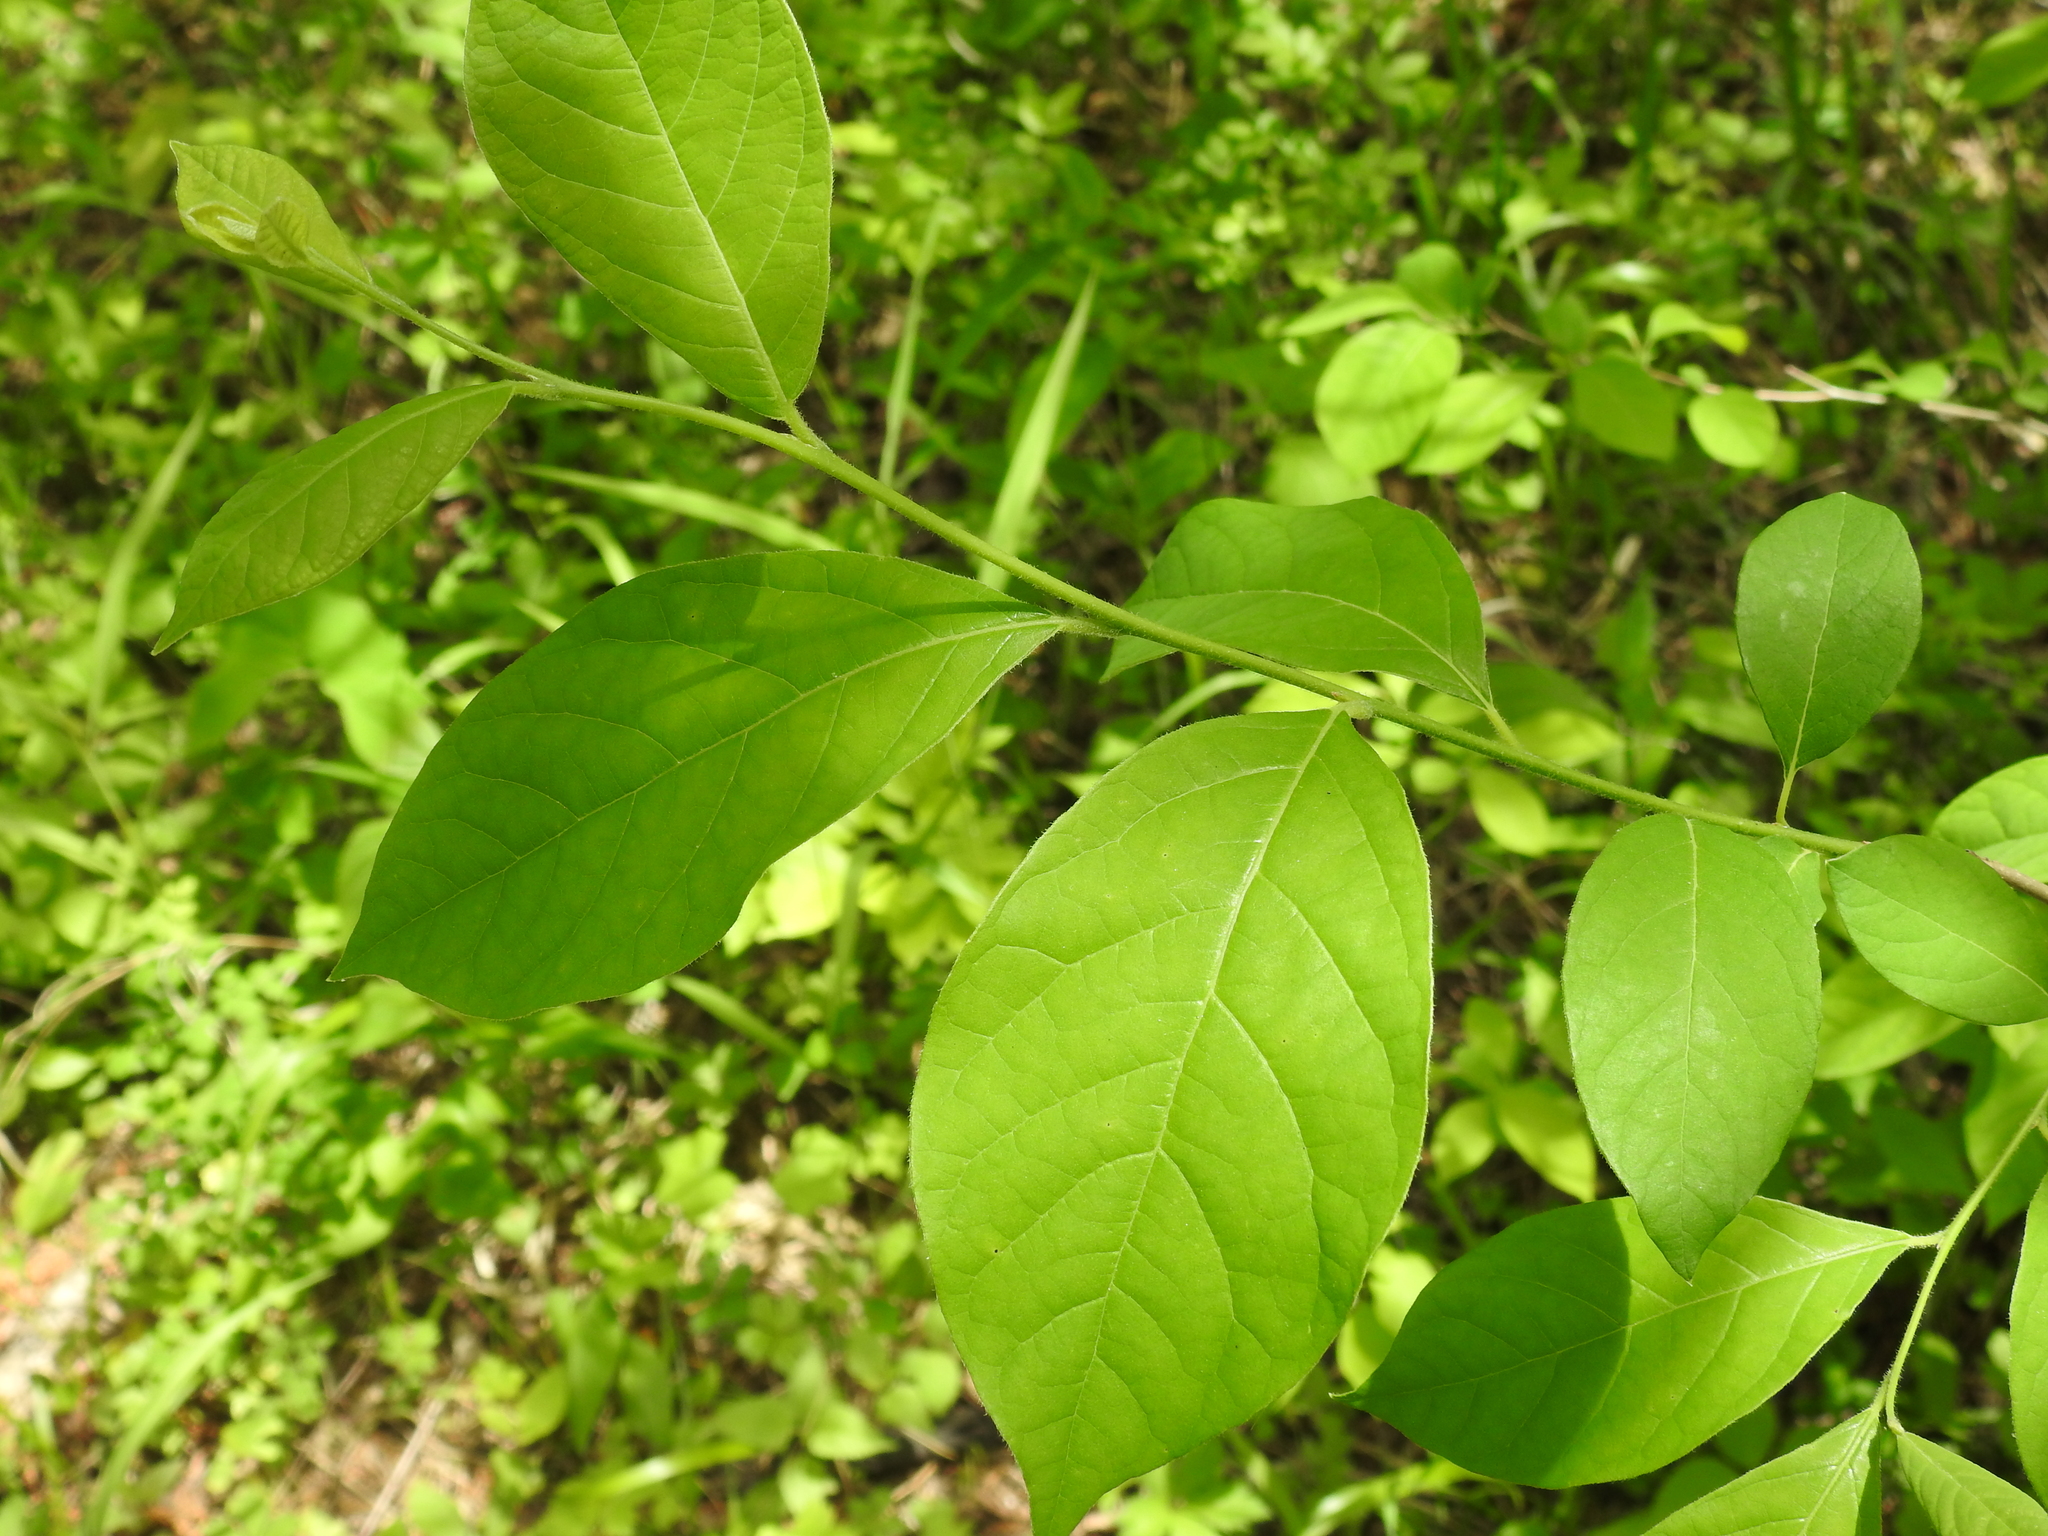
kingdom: Plantae
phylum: Tracheophyta
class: Magnoliopsida
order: Laurales
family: Lauraceae
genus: Lindera
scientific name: Lindera benzoin
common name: Spicebush
